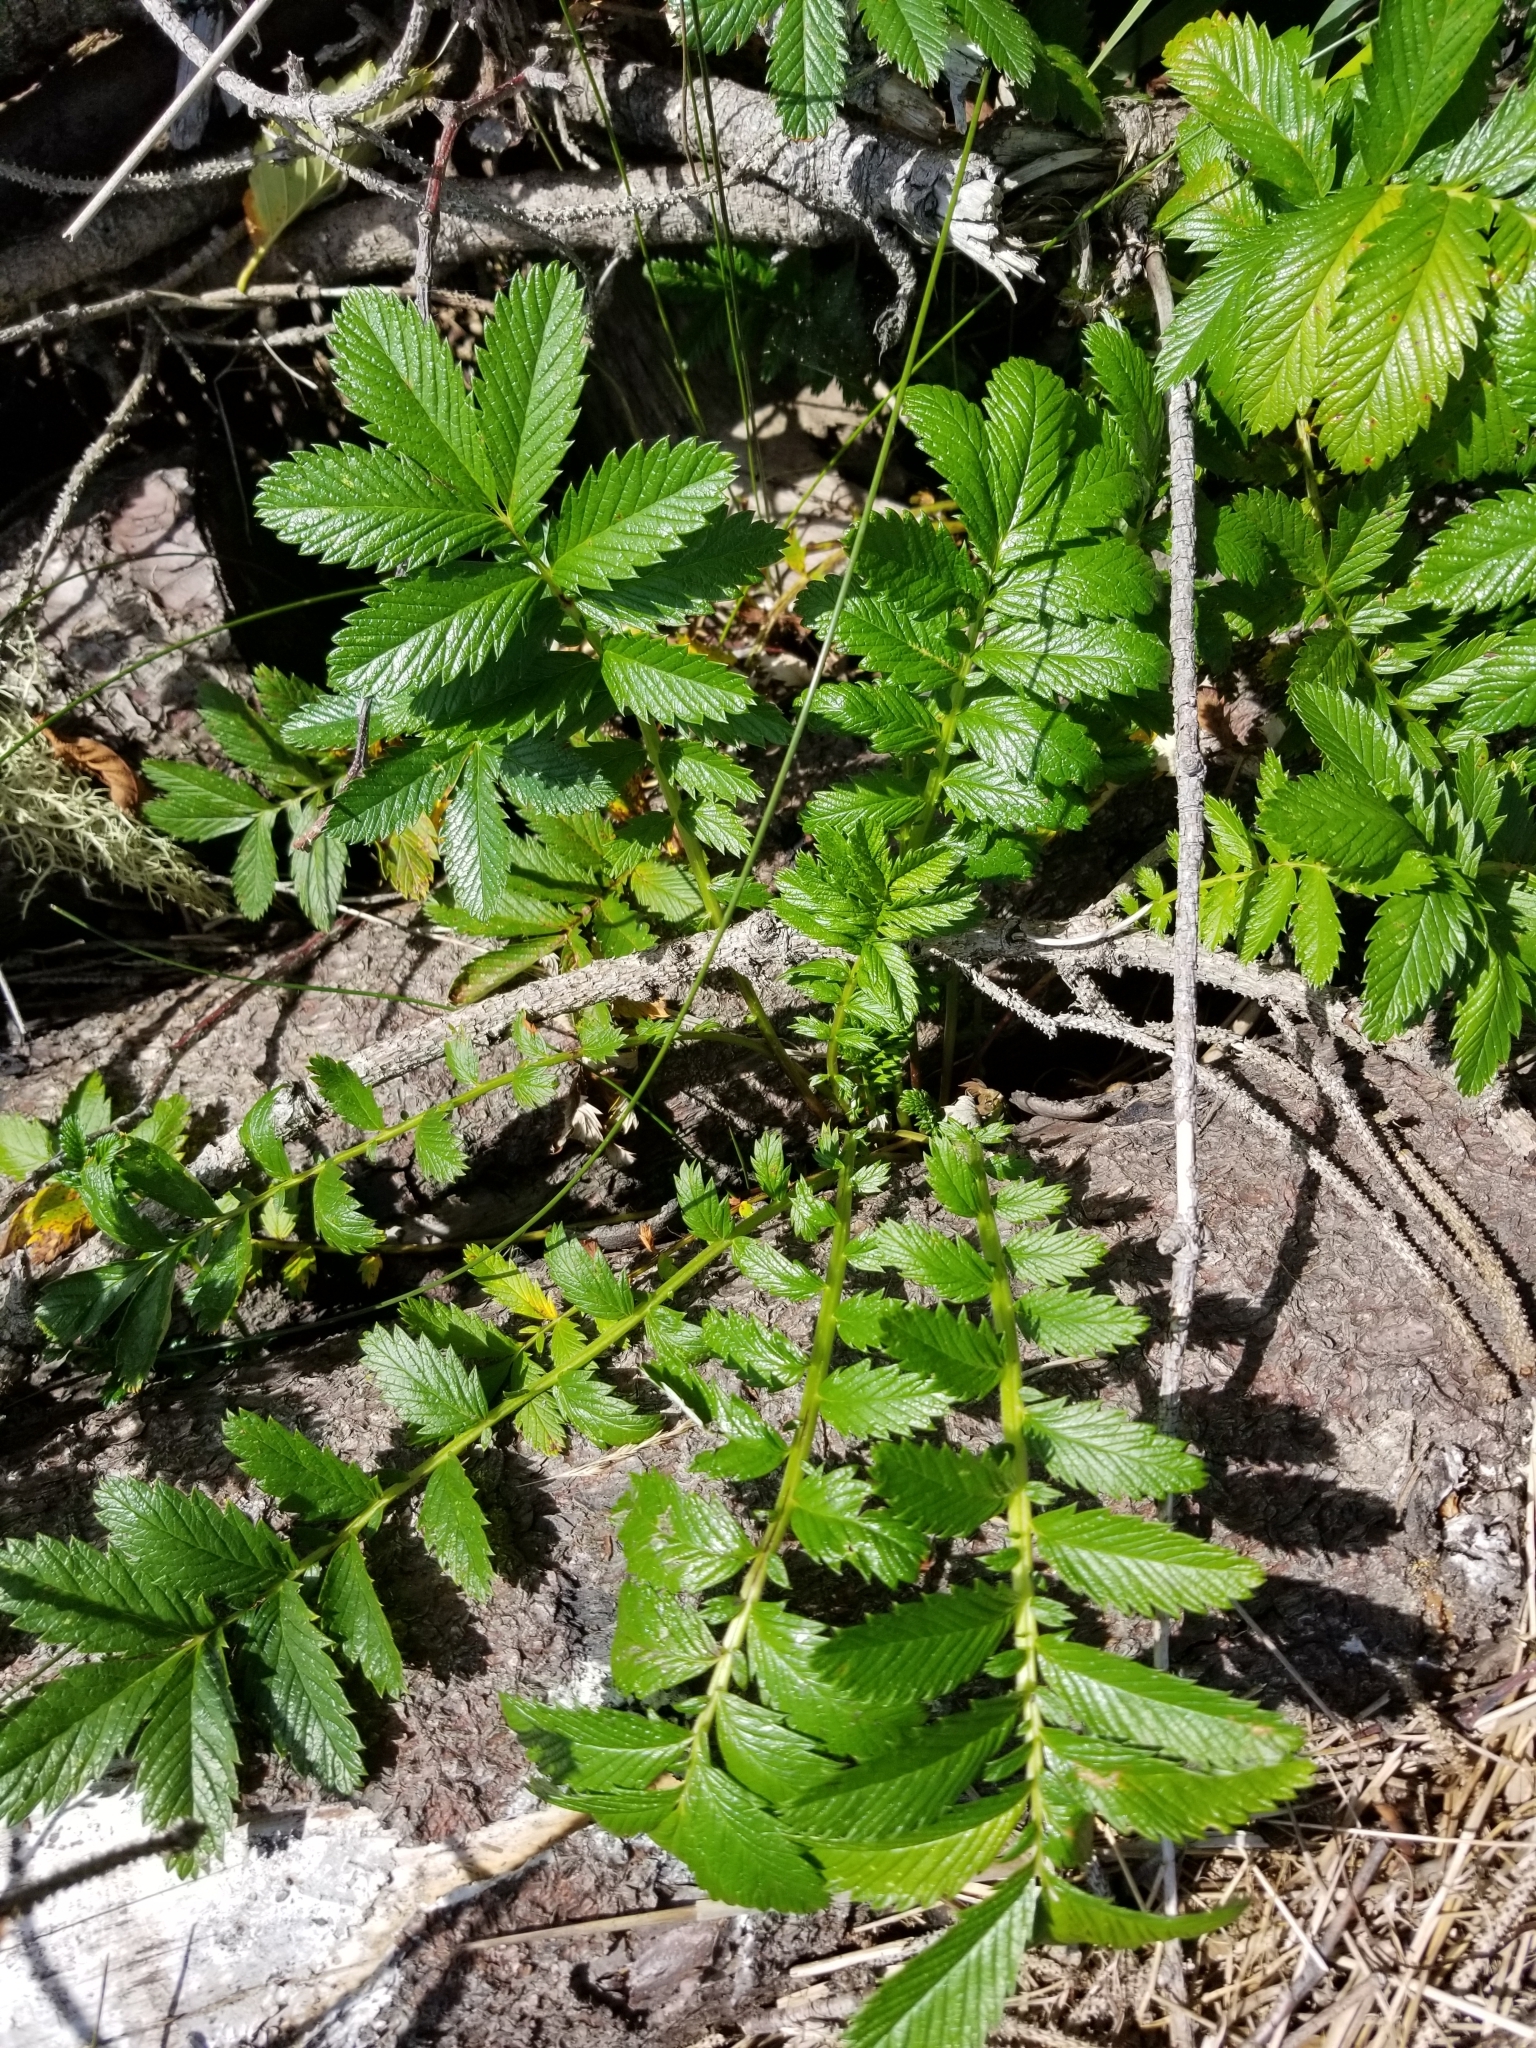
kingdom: Plantae
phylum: Tracheophyta
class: Magnoliopsida
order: Rosales
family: Rosaceae
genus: Argentina
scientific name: Argentina anserina
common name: Common silverweed
